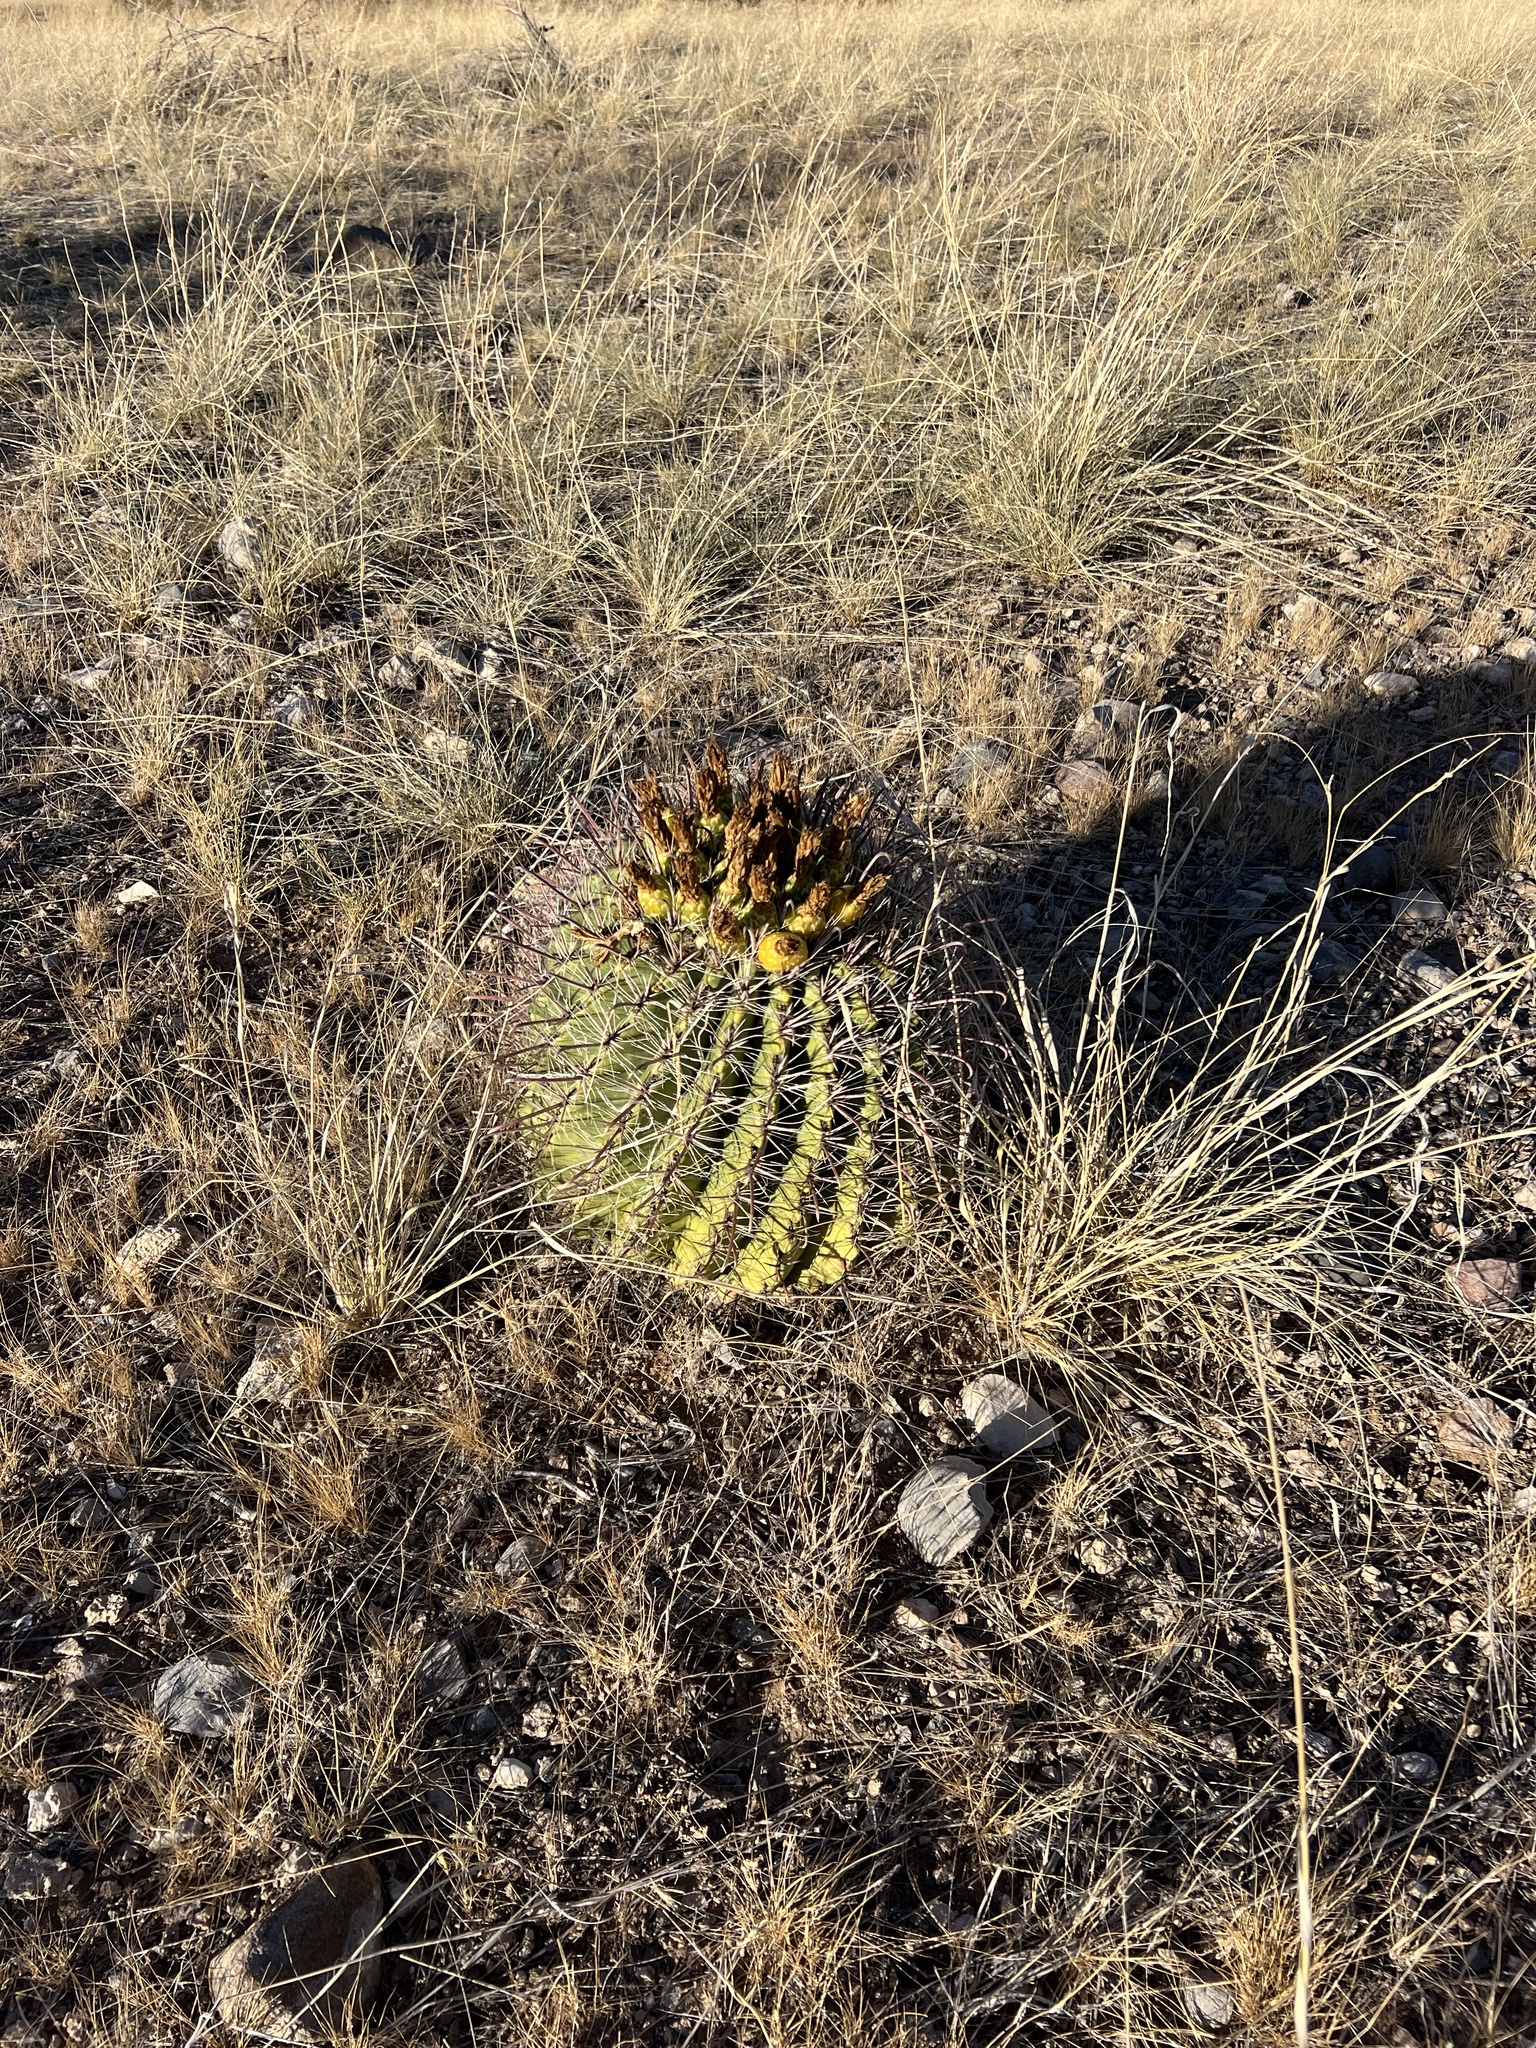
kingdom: Plantae
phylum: Tracheophyta
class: Magnoliopsida
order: Caryophyllales
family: Cactaceae
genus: Ferocactus
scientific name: Ferocactus wislizeni
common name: Candy barrel cactus
